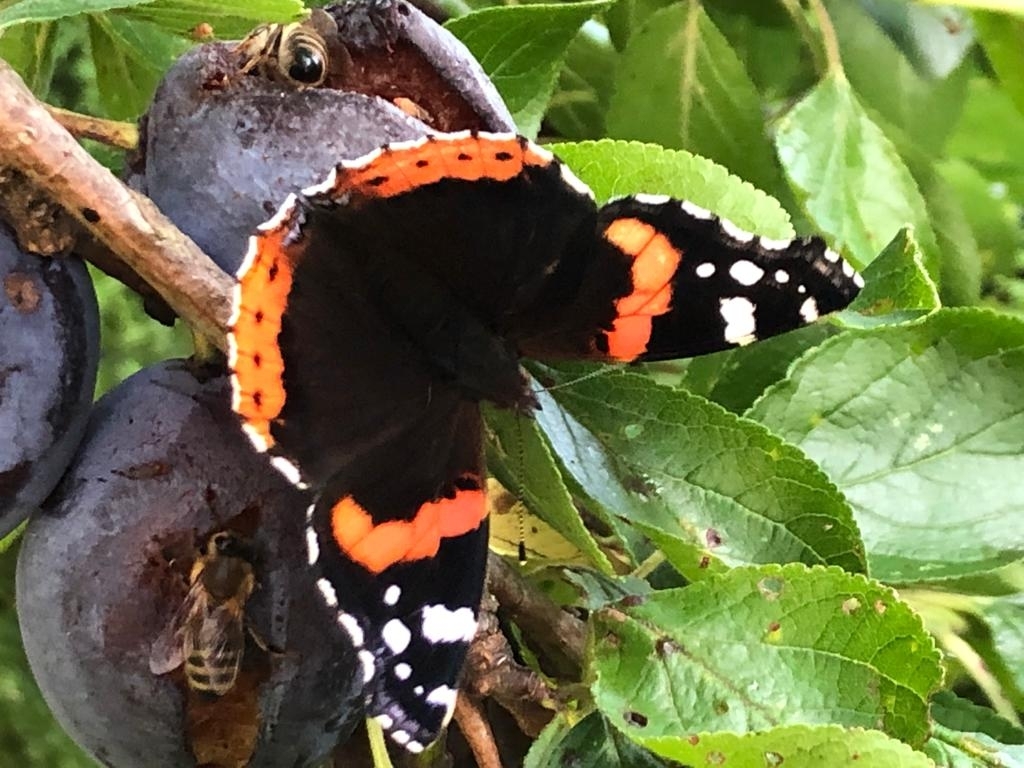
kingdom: Animalia
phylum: Arthropoda
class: Insecta
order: Lepidoptera
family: Nymphalidae
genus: Vanessa
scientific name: Vanessa atalanta
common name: Red admiral
